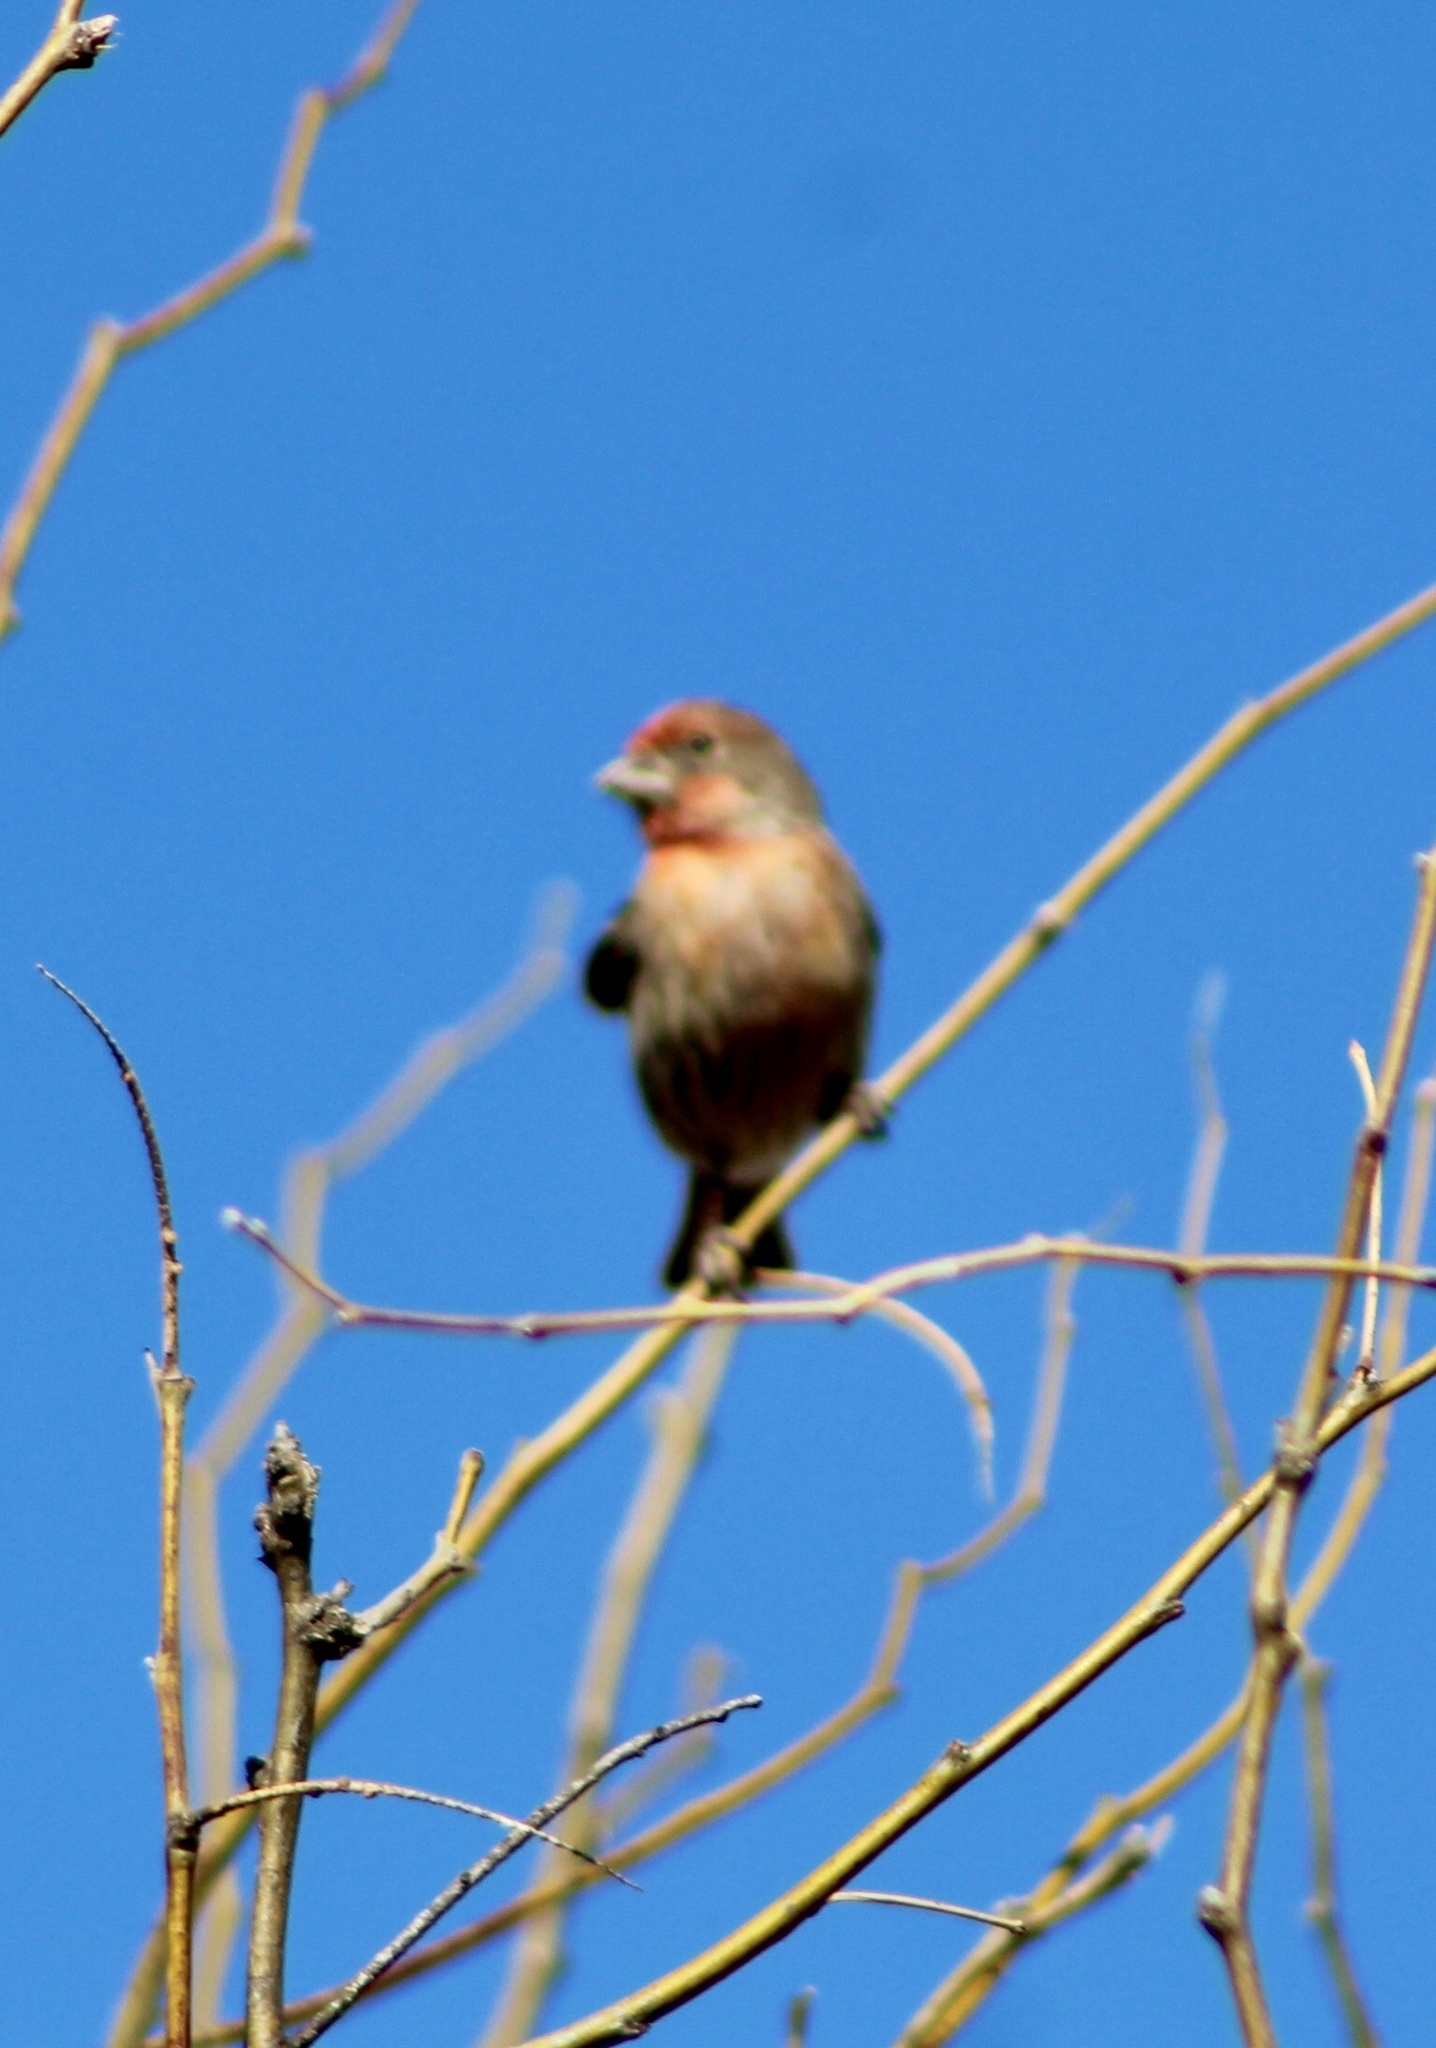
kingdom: Animalia
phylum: Chordata
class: Aves
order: Passeriformes
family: Fringillidae
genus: Haemorhous
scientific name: Haemorhous mexicanus
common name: House finch
